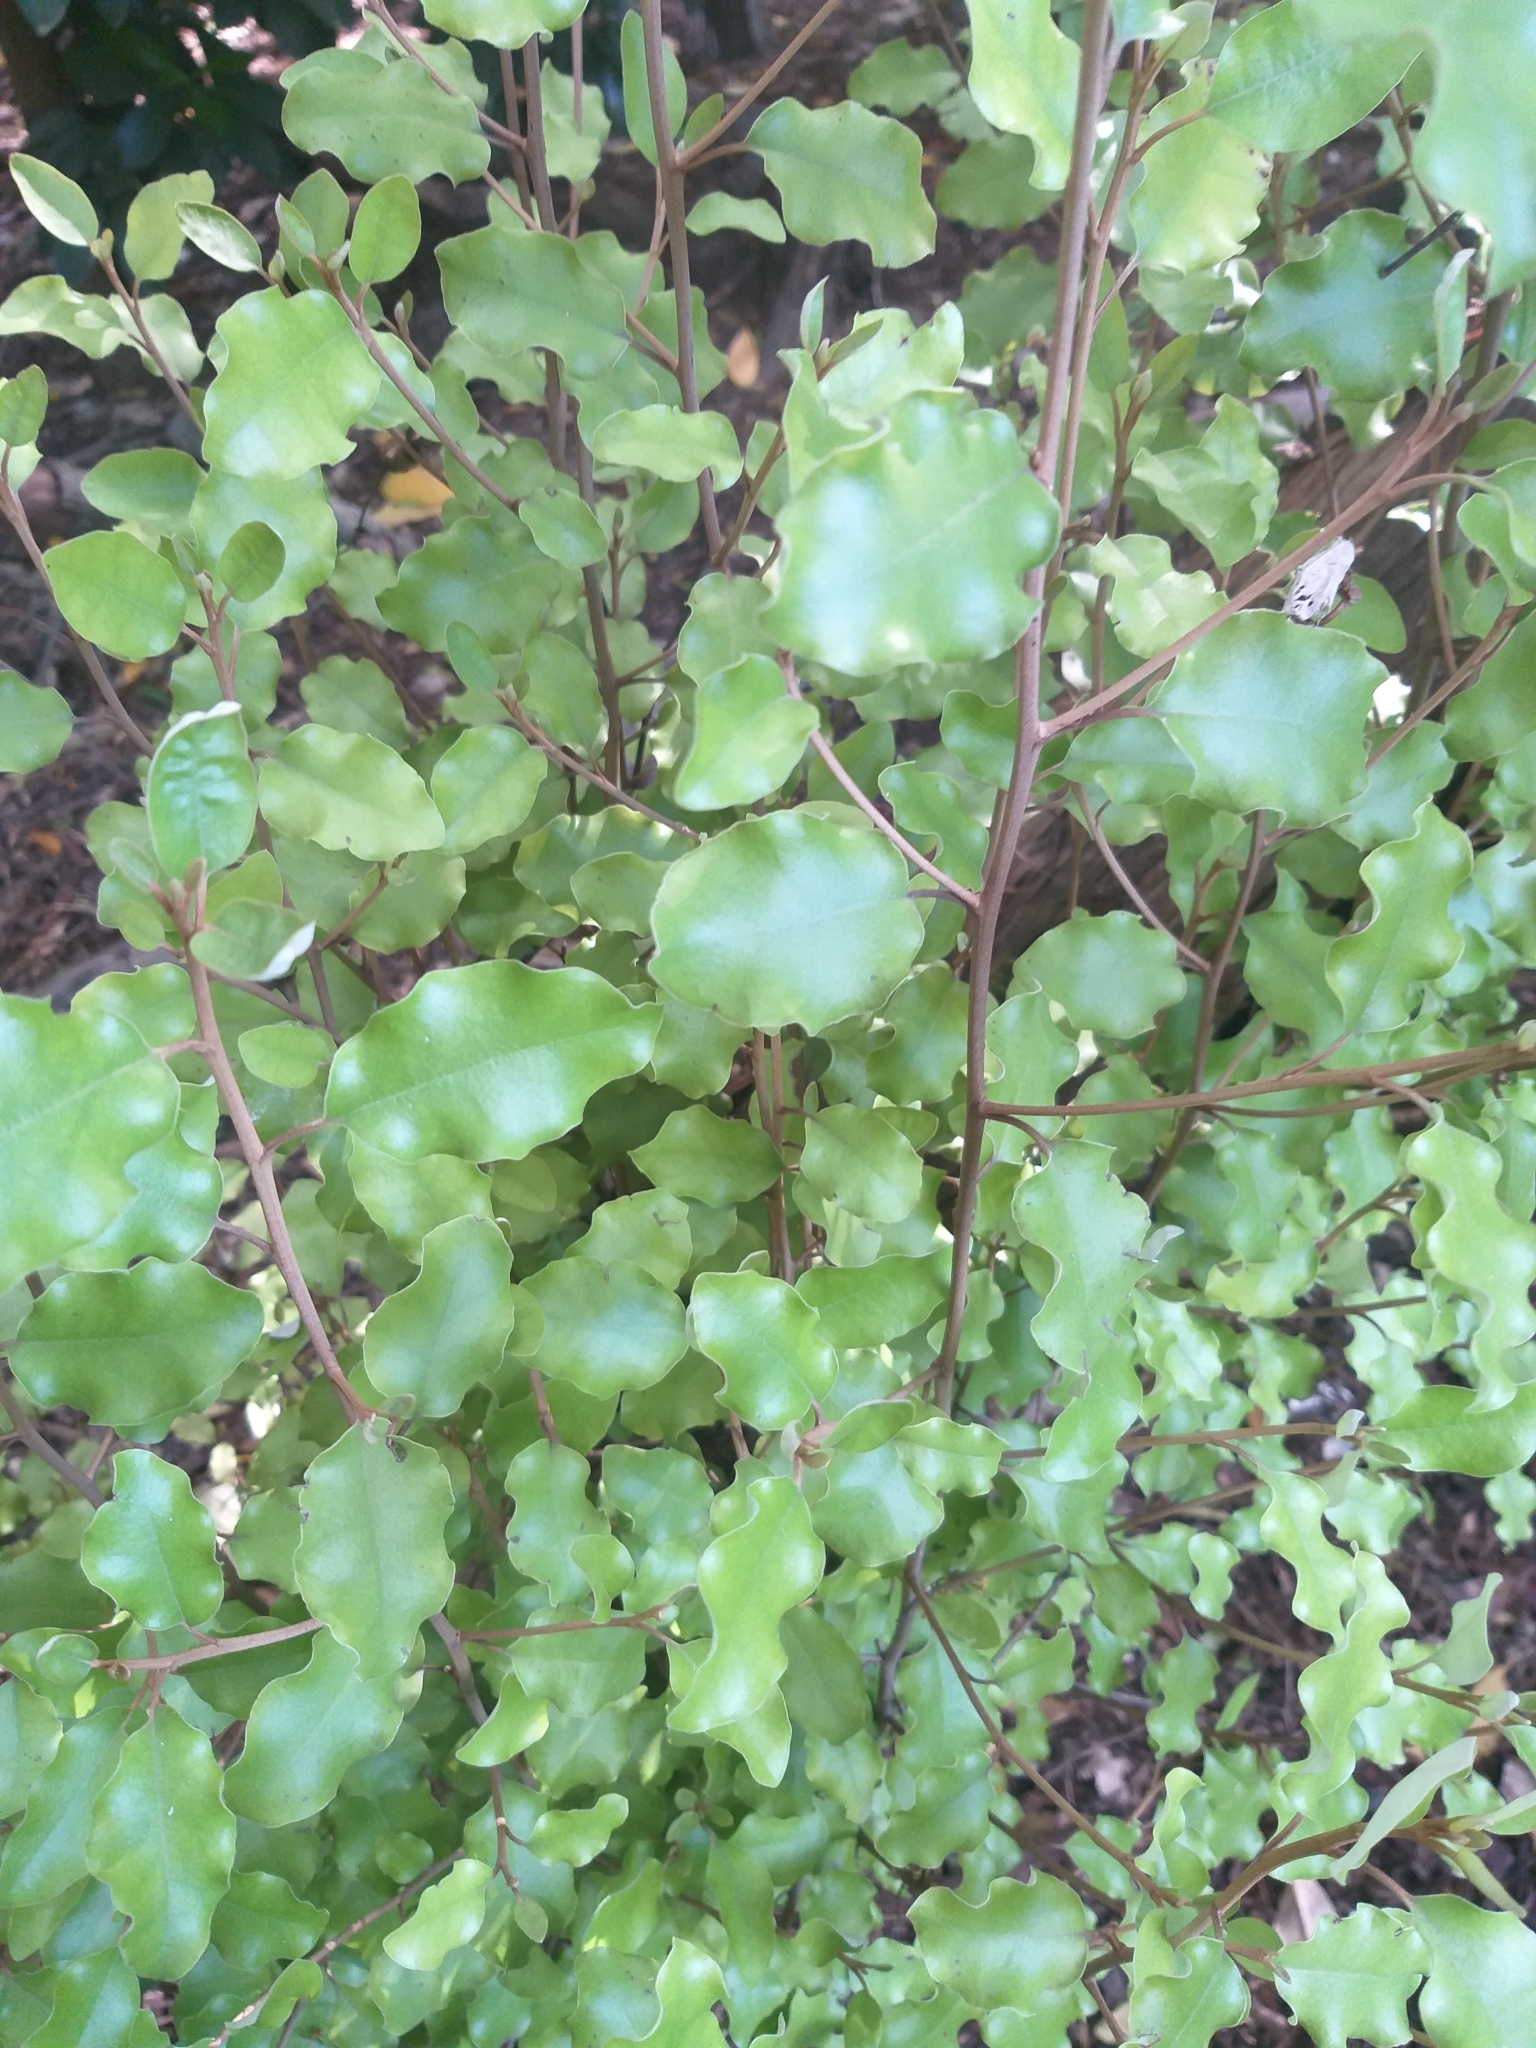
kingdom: Plantae
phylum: Tracheophyta
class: Magnoliopsida
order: Asterales
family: Asteraceae
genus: Olearia
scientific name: Olearia paniculata
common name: Akiraho
